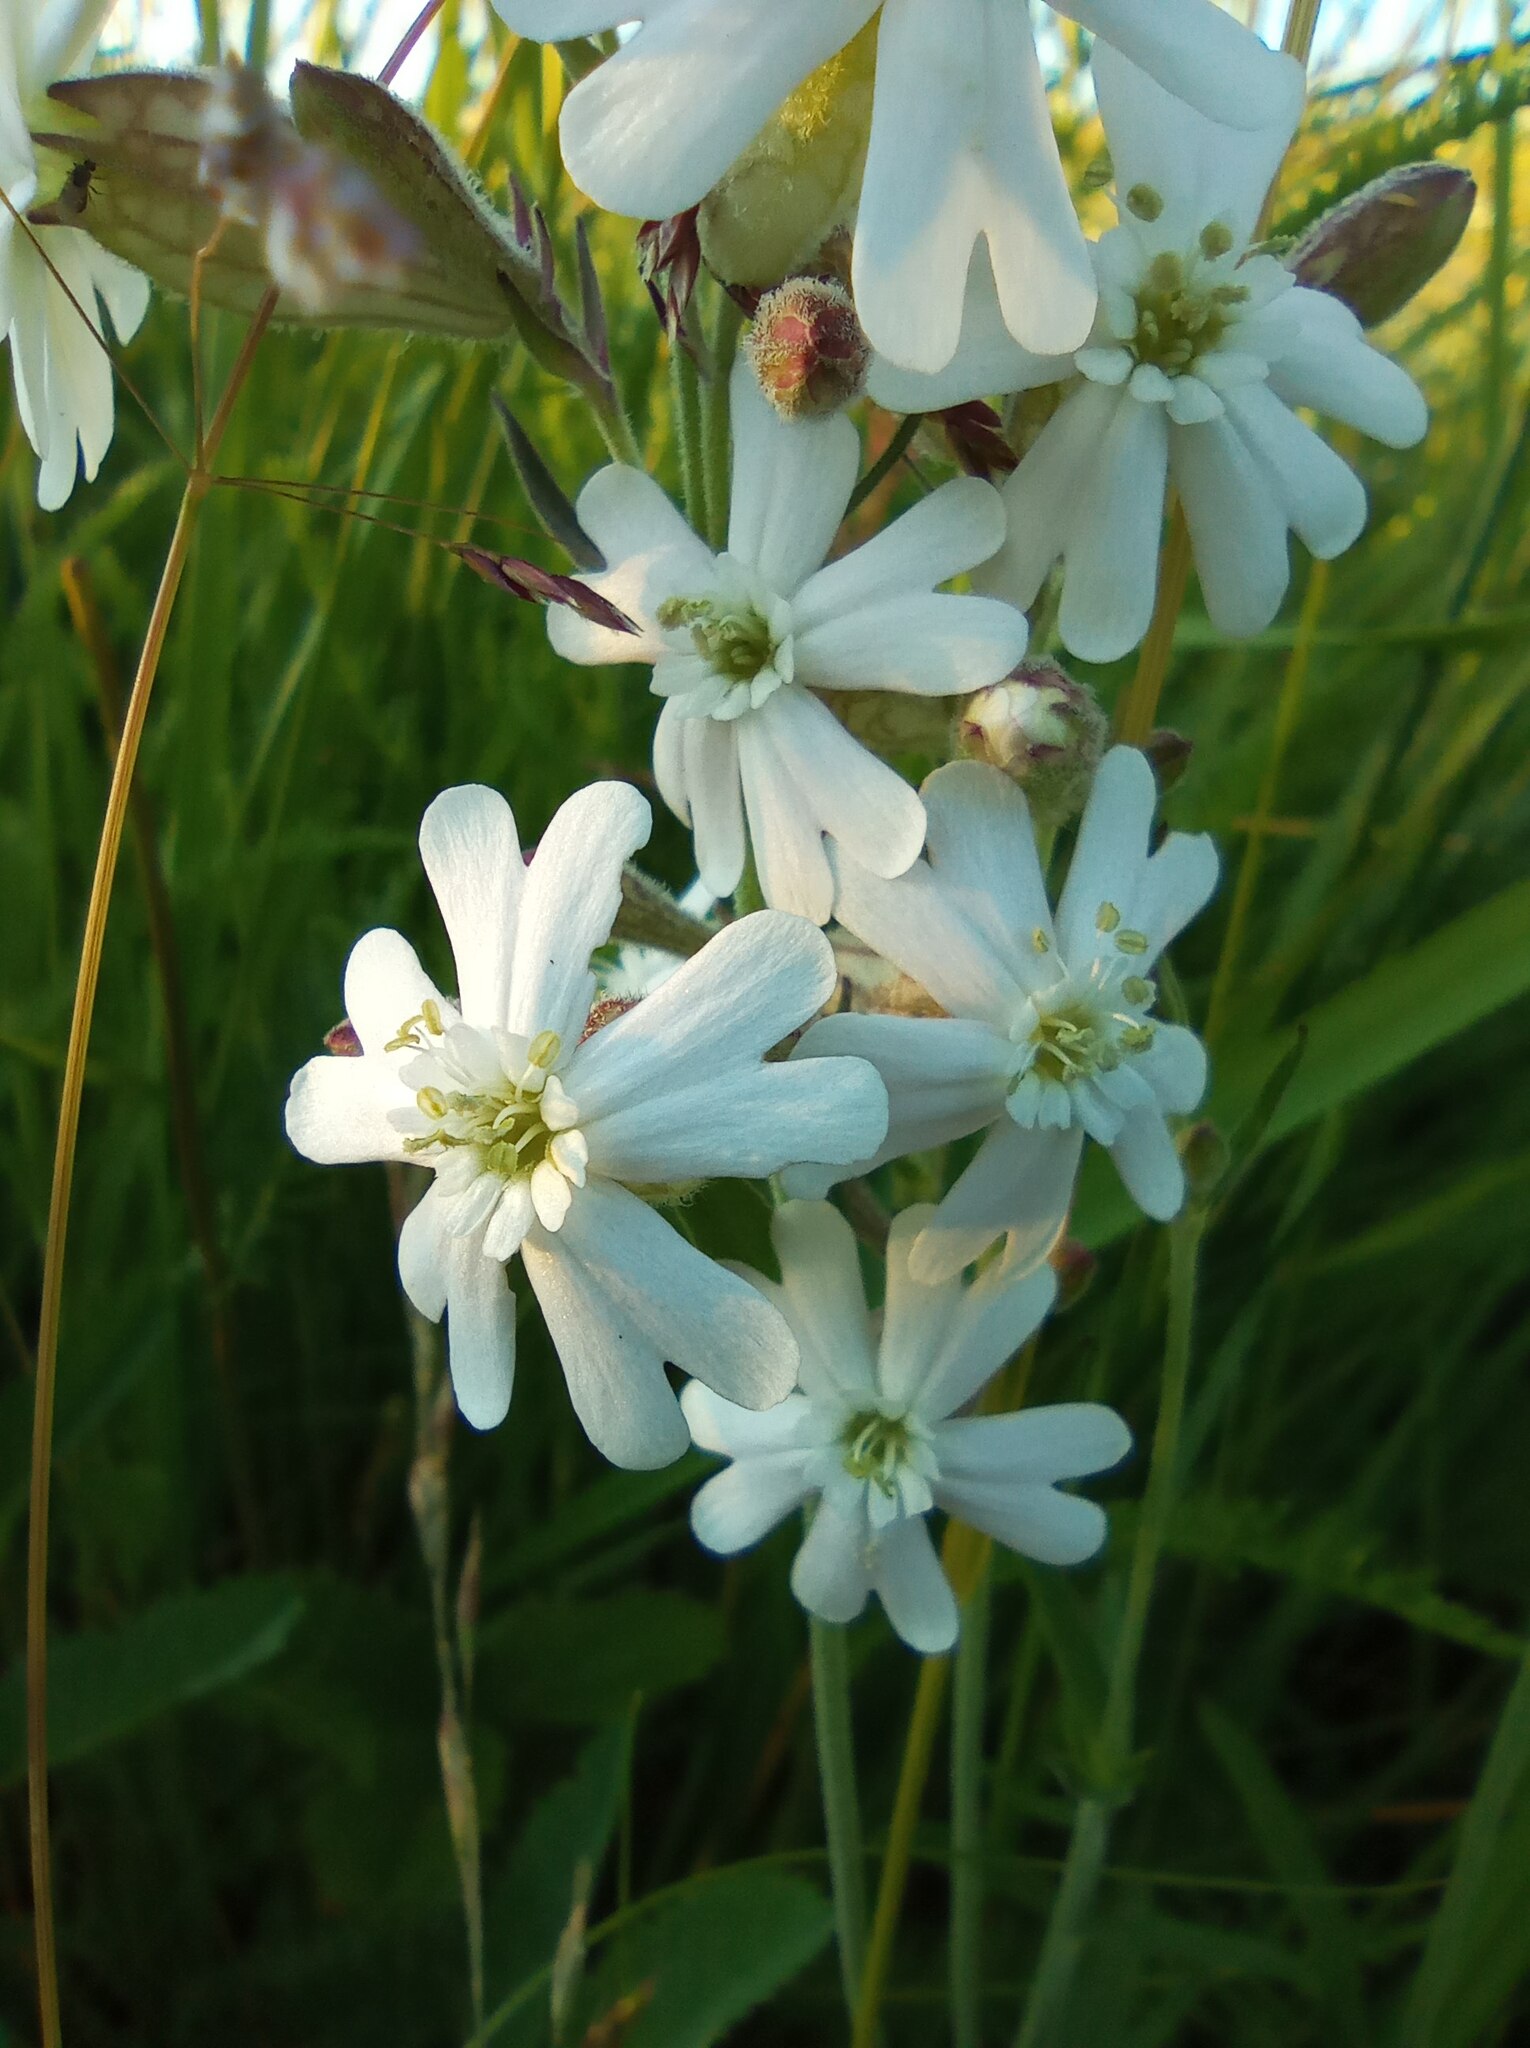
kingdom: Plantae
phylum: Tracheophyta
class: Magnoliopsida
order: Caryophyllales
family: Caryophyllaceae
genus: Silene
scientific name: Silene amoena
